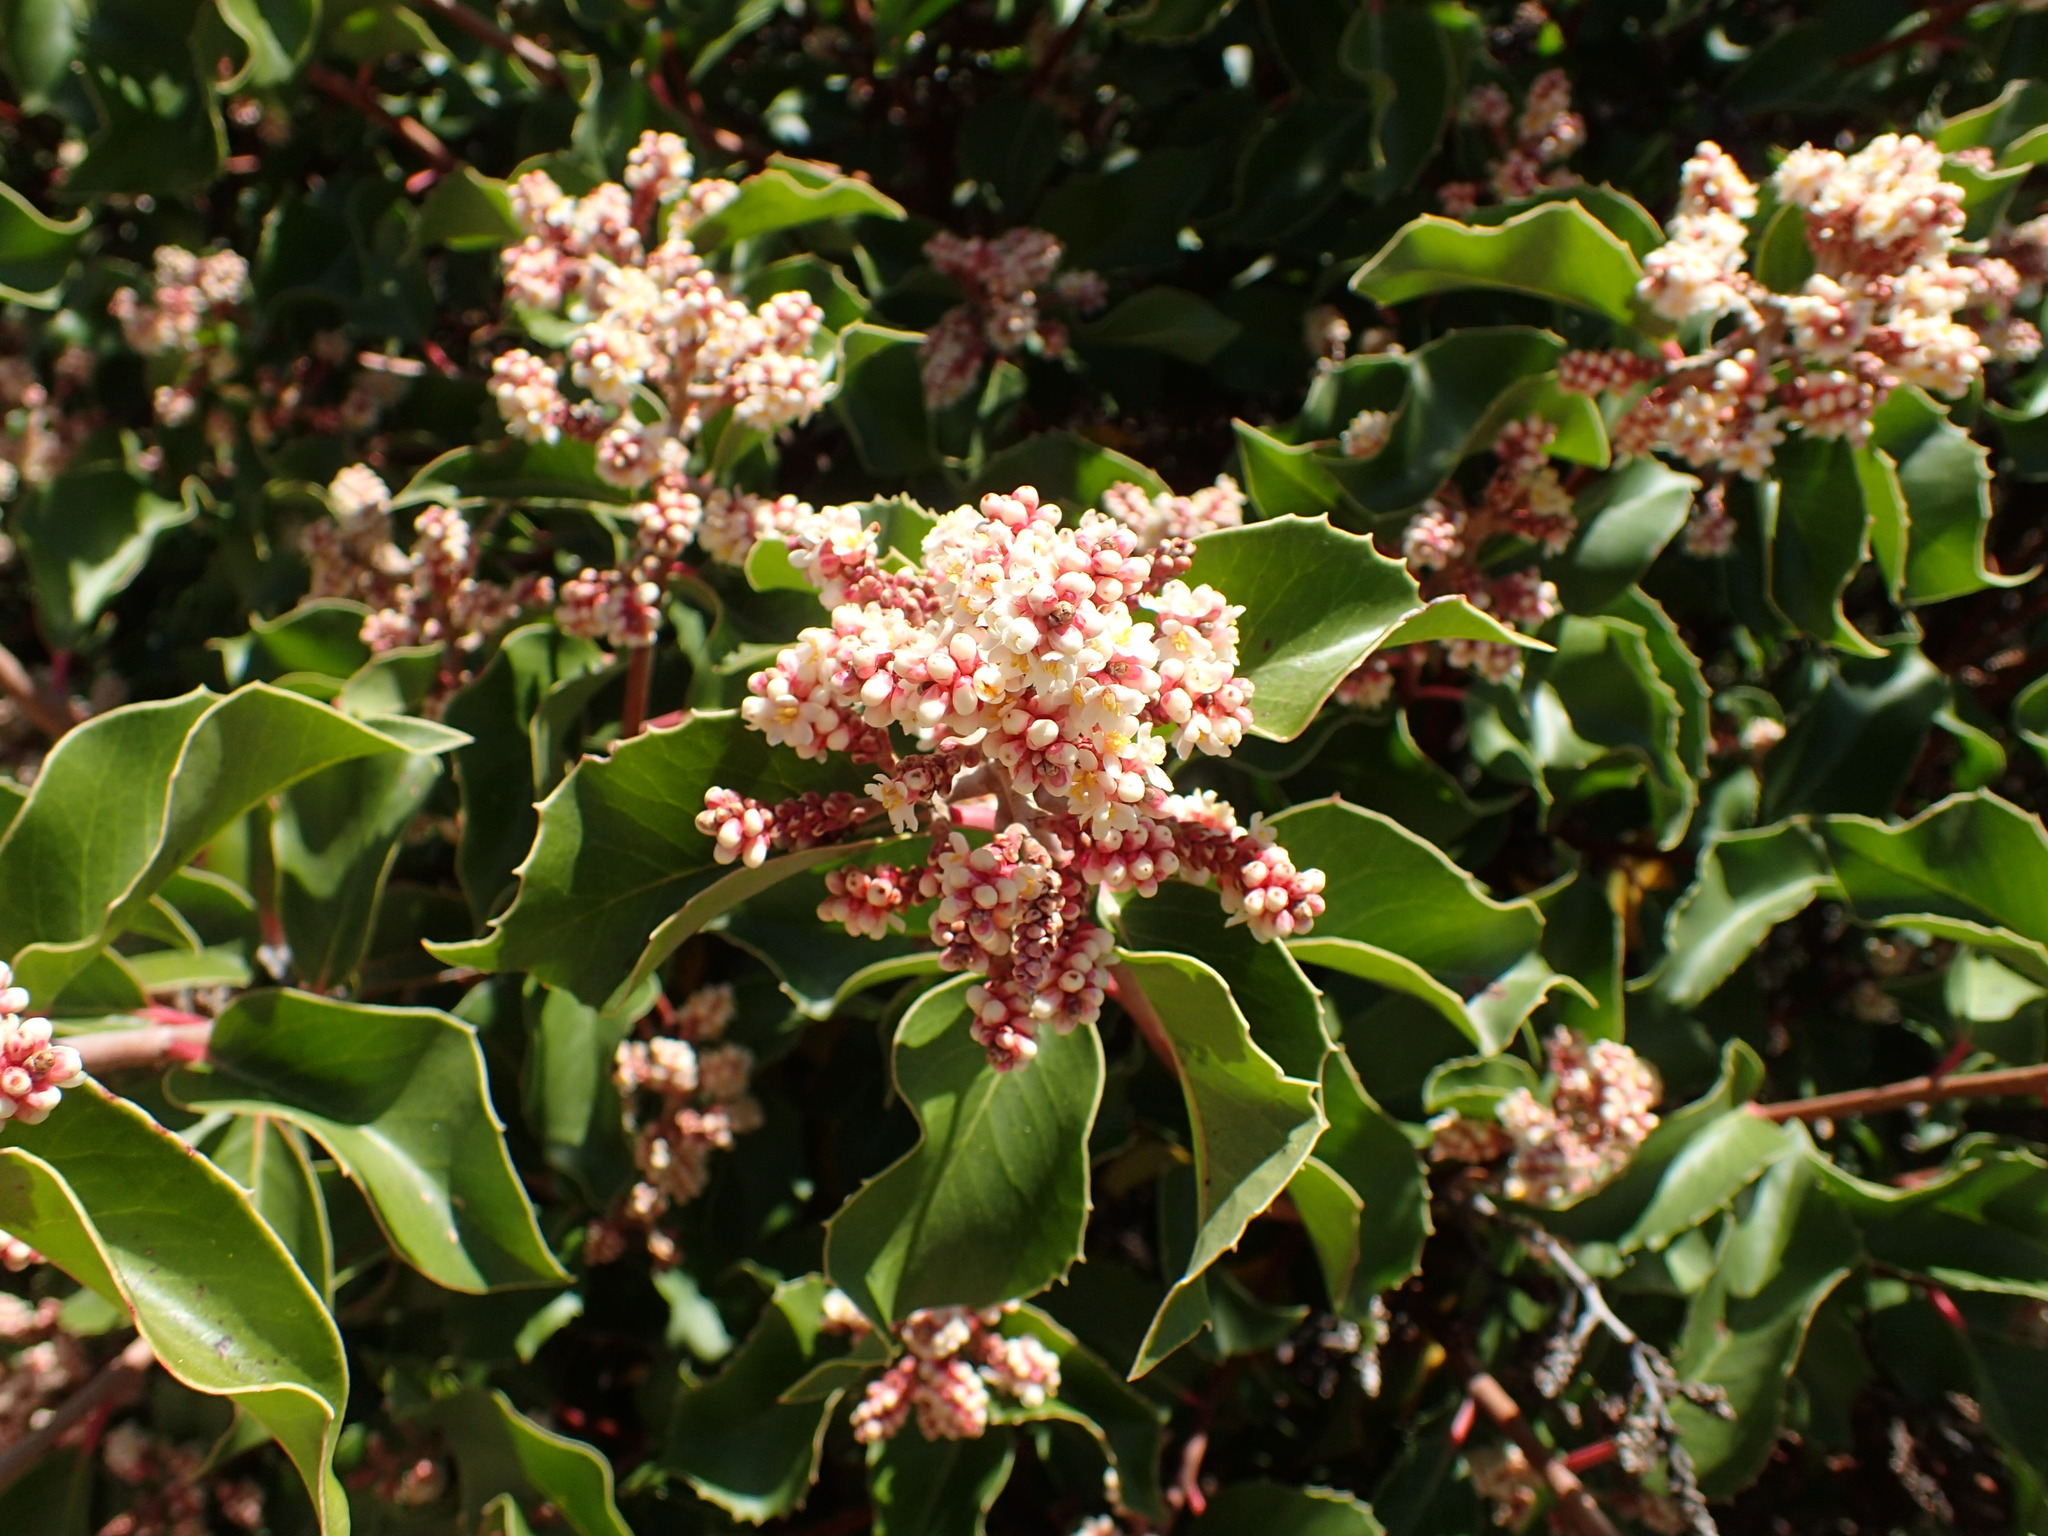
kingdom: Plantae
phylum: Tracheophyta
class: Magnoliopsida
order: Sapindales
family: Anacardiaceae
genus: Rhus
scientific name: Rhus ovata
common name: Sugar sumac
